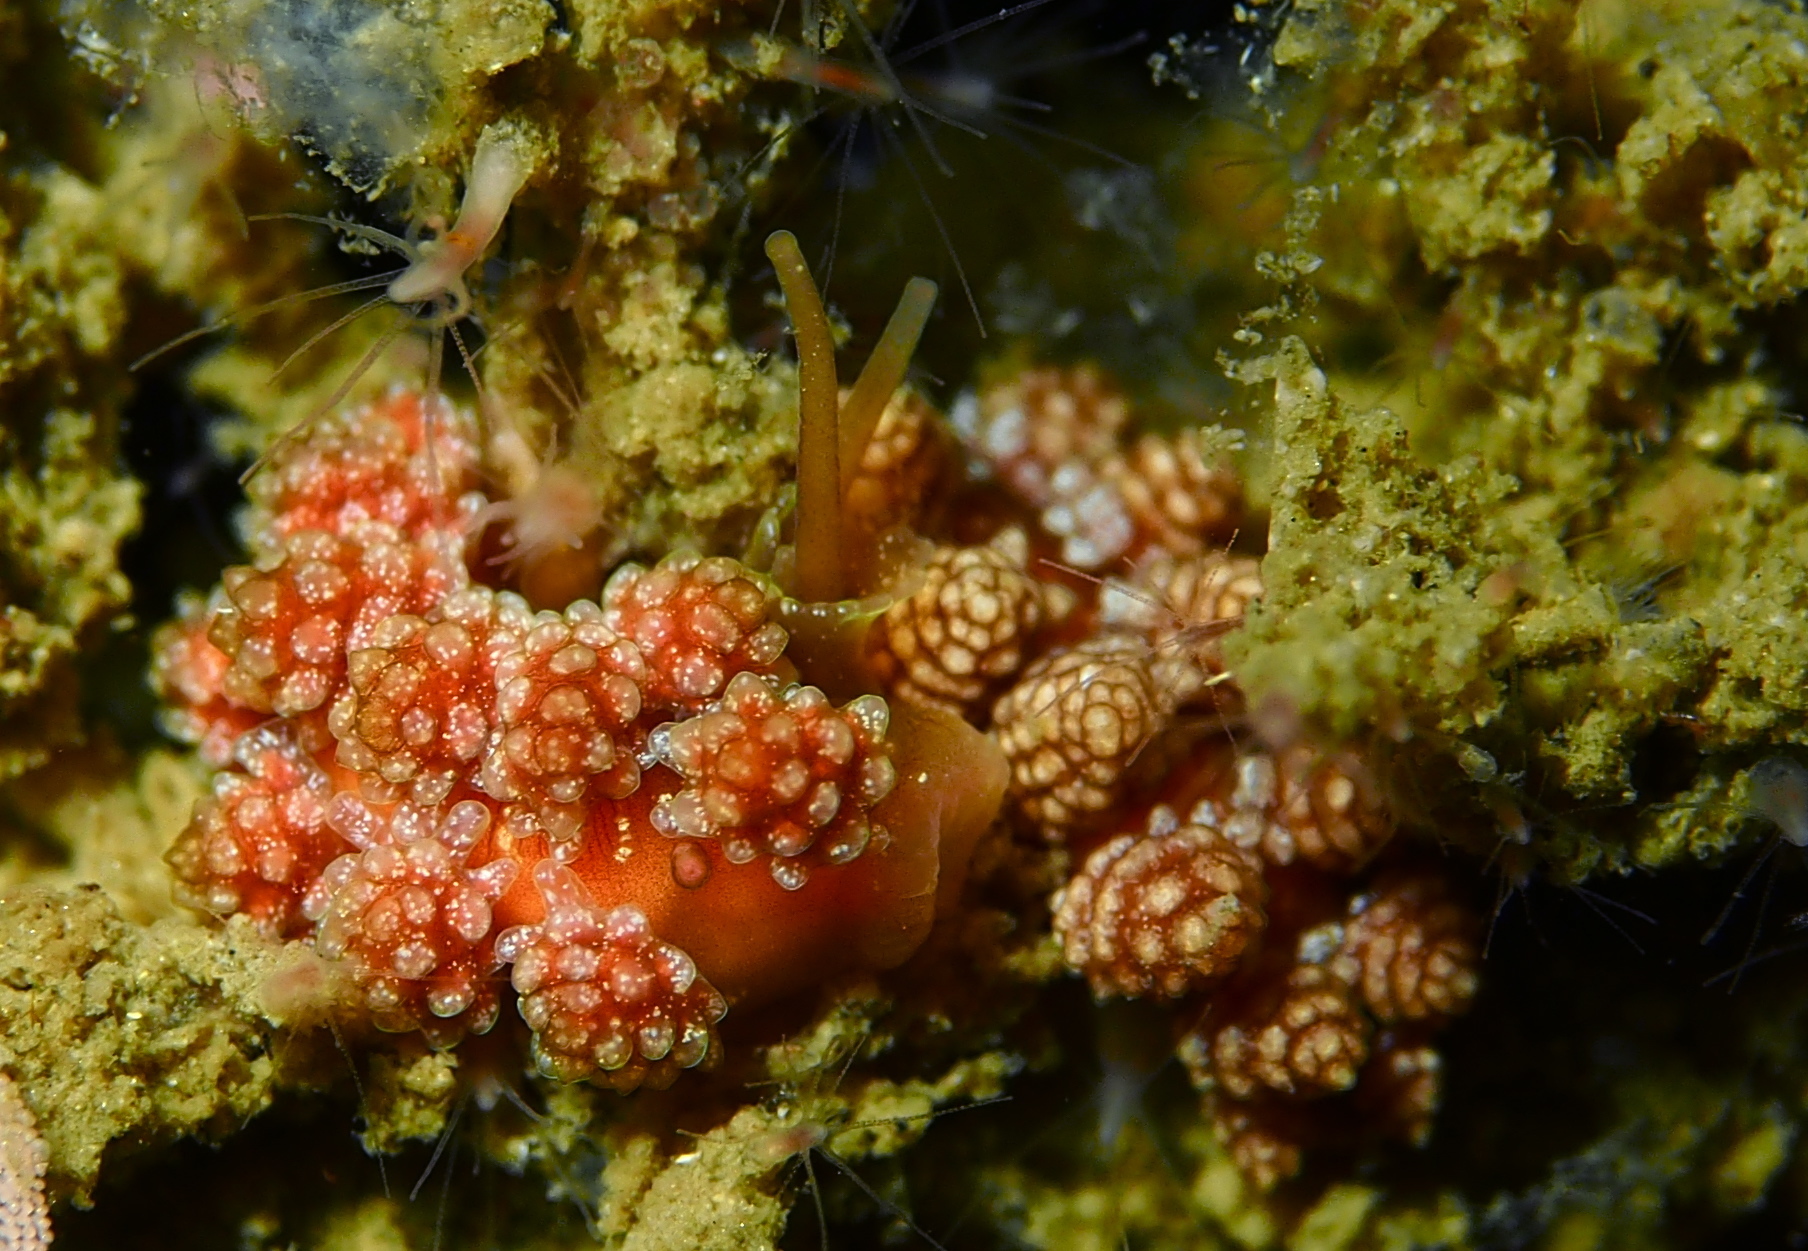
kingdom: Animalia
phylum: Mollusca
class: Gastropoda
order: Nudibranchia
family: Dotidae
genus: Doto
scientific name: Doto fragilis
